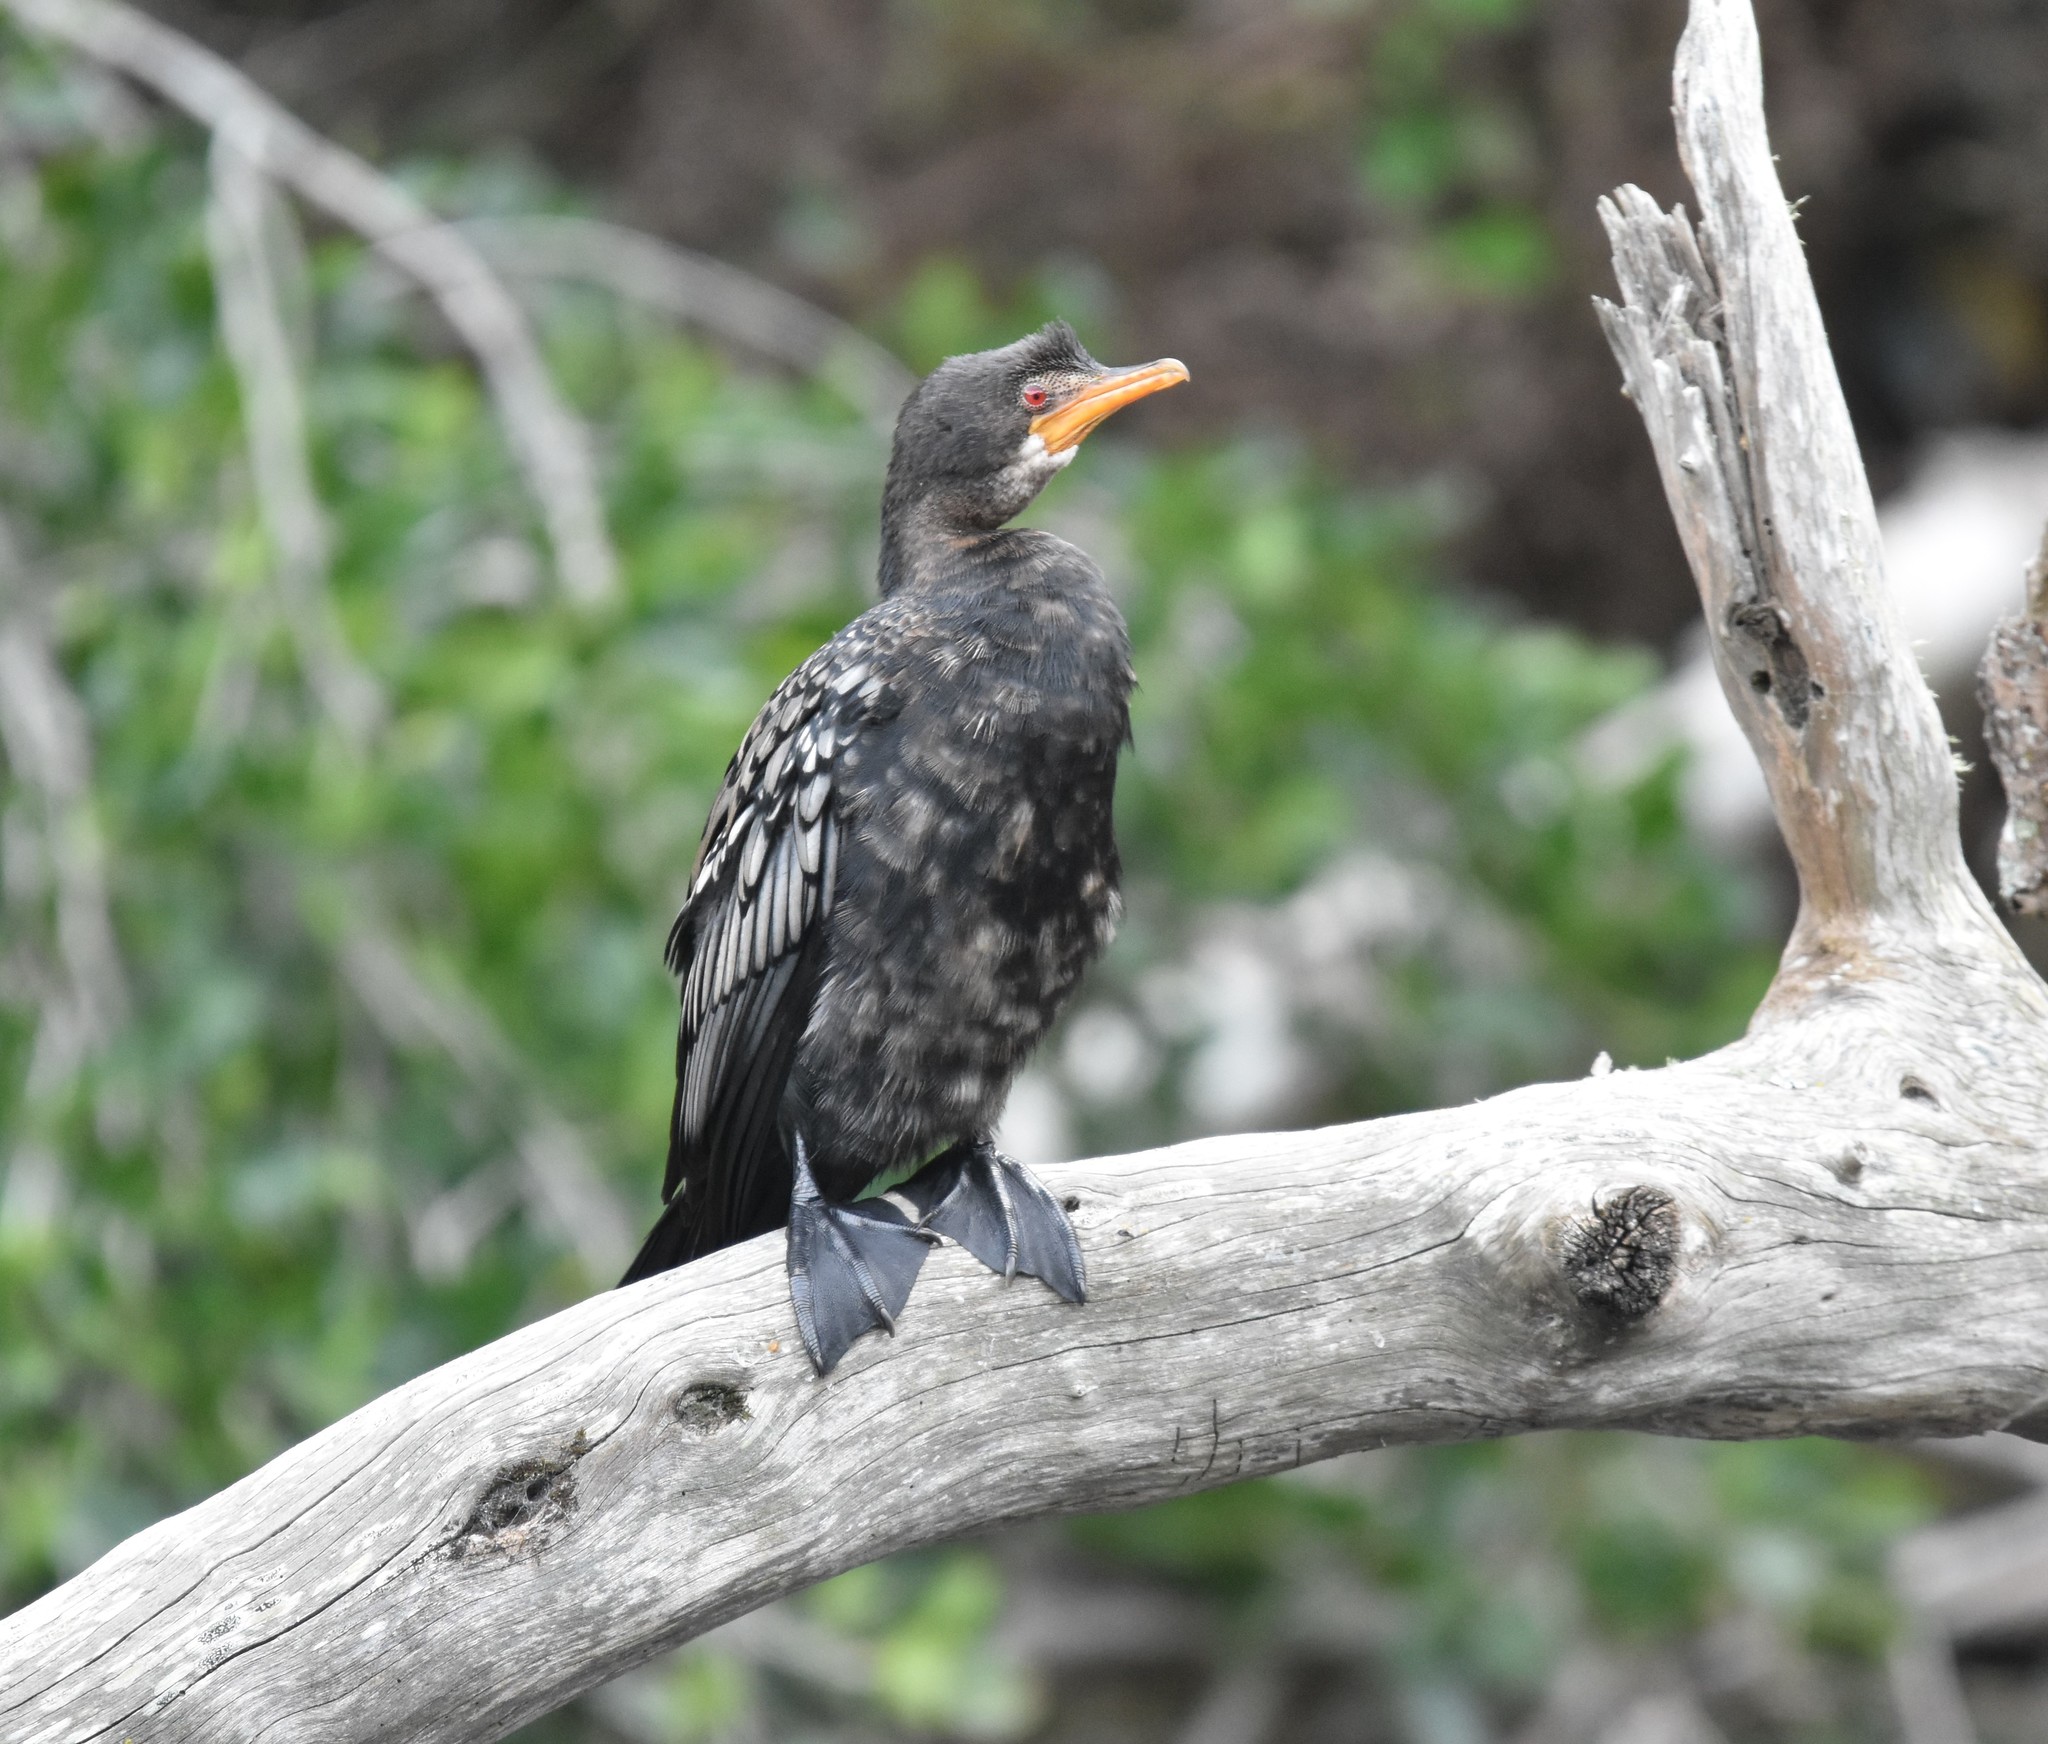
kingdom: Animalia
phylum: Chordata
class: Aves
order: Suliformes
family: Phalacrocoracidae
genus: Microcarbo
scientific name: Microcarbo africanus
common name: Long-tailed cormorant
